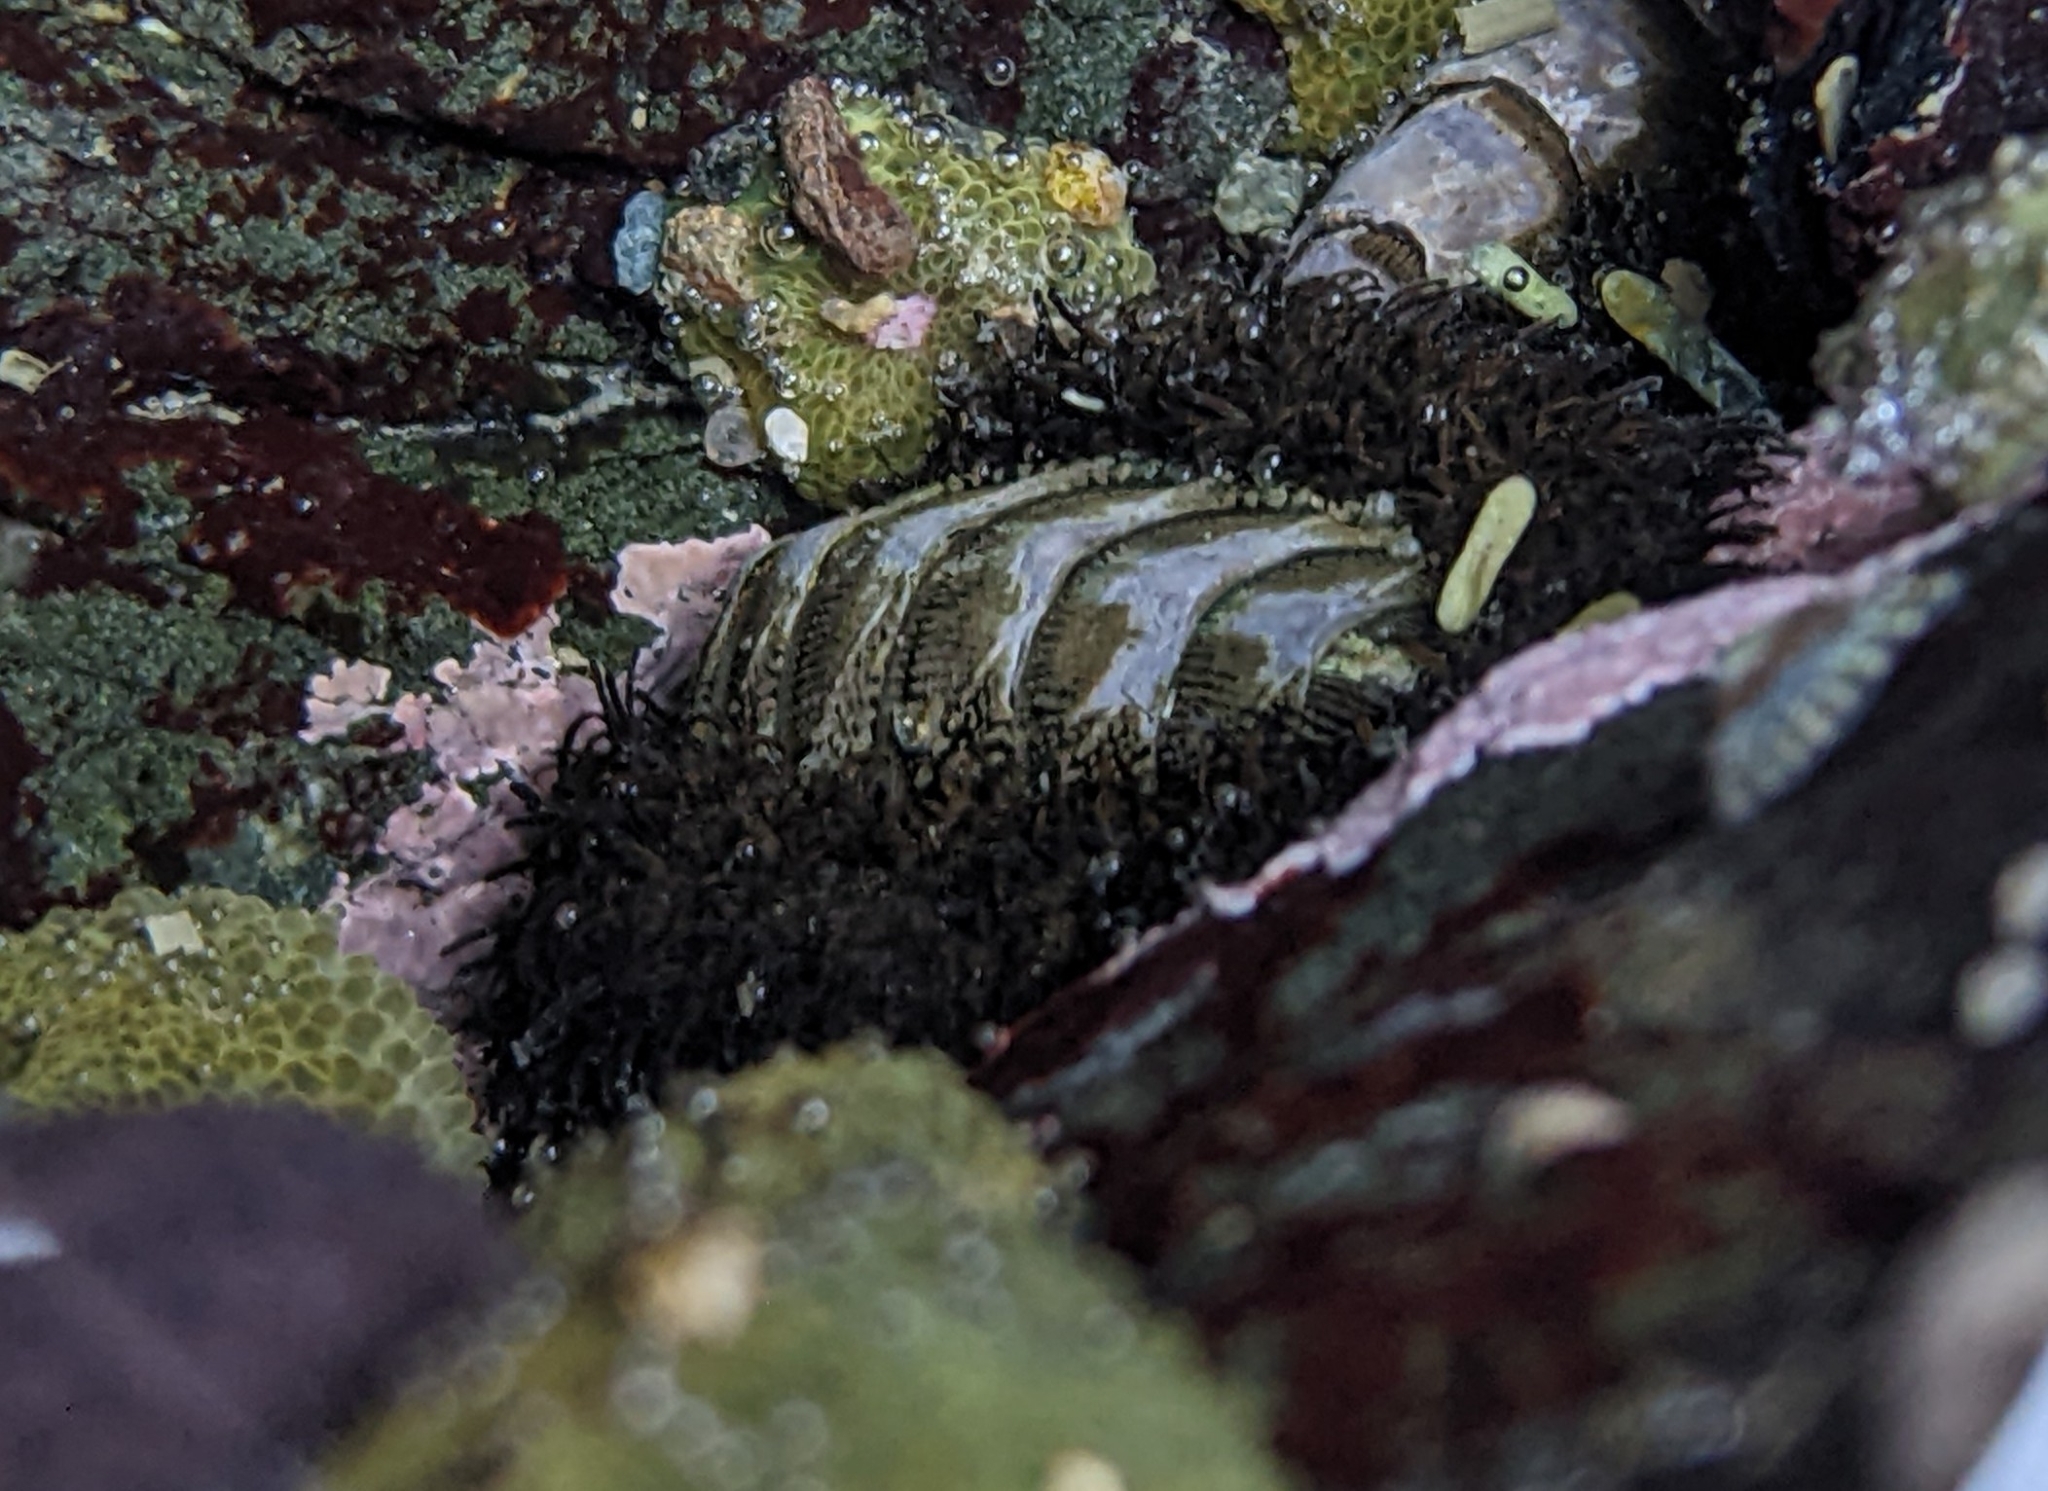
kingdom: Animalia
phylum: Mollusca
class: Polyplacophora
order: Chitonida
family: Mopaliidae
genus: Mopalia
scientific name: Mopalia muscosa
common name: Mossy chiton
